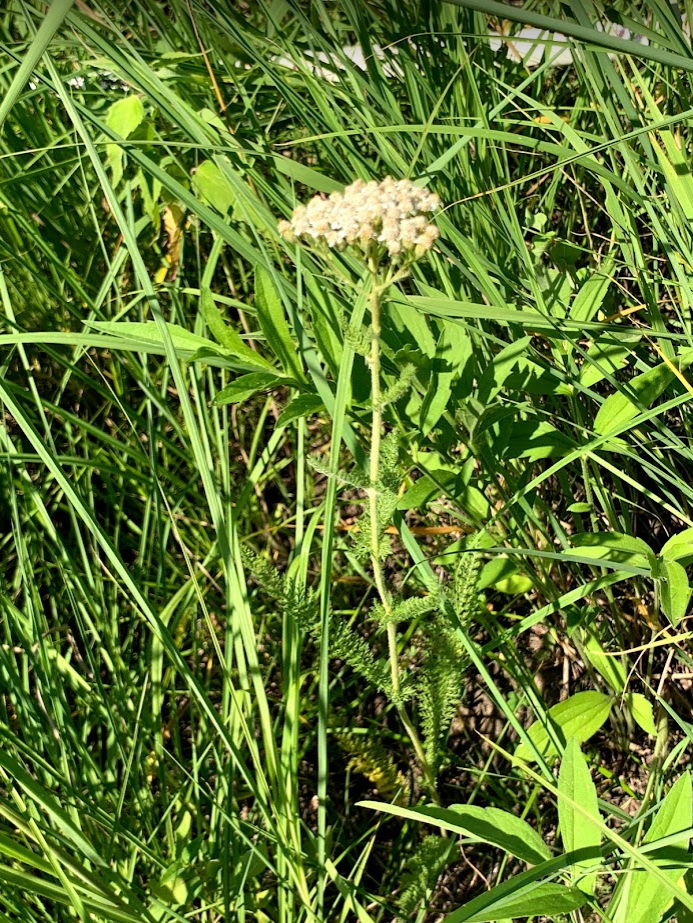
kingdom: Plantae
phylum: Tracheophyta
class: Magnoliopsida
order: Asterales
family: Asteraceae
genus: Achillea
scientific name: Achillea millefolium
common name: Yarrow
